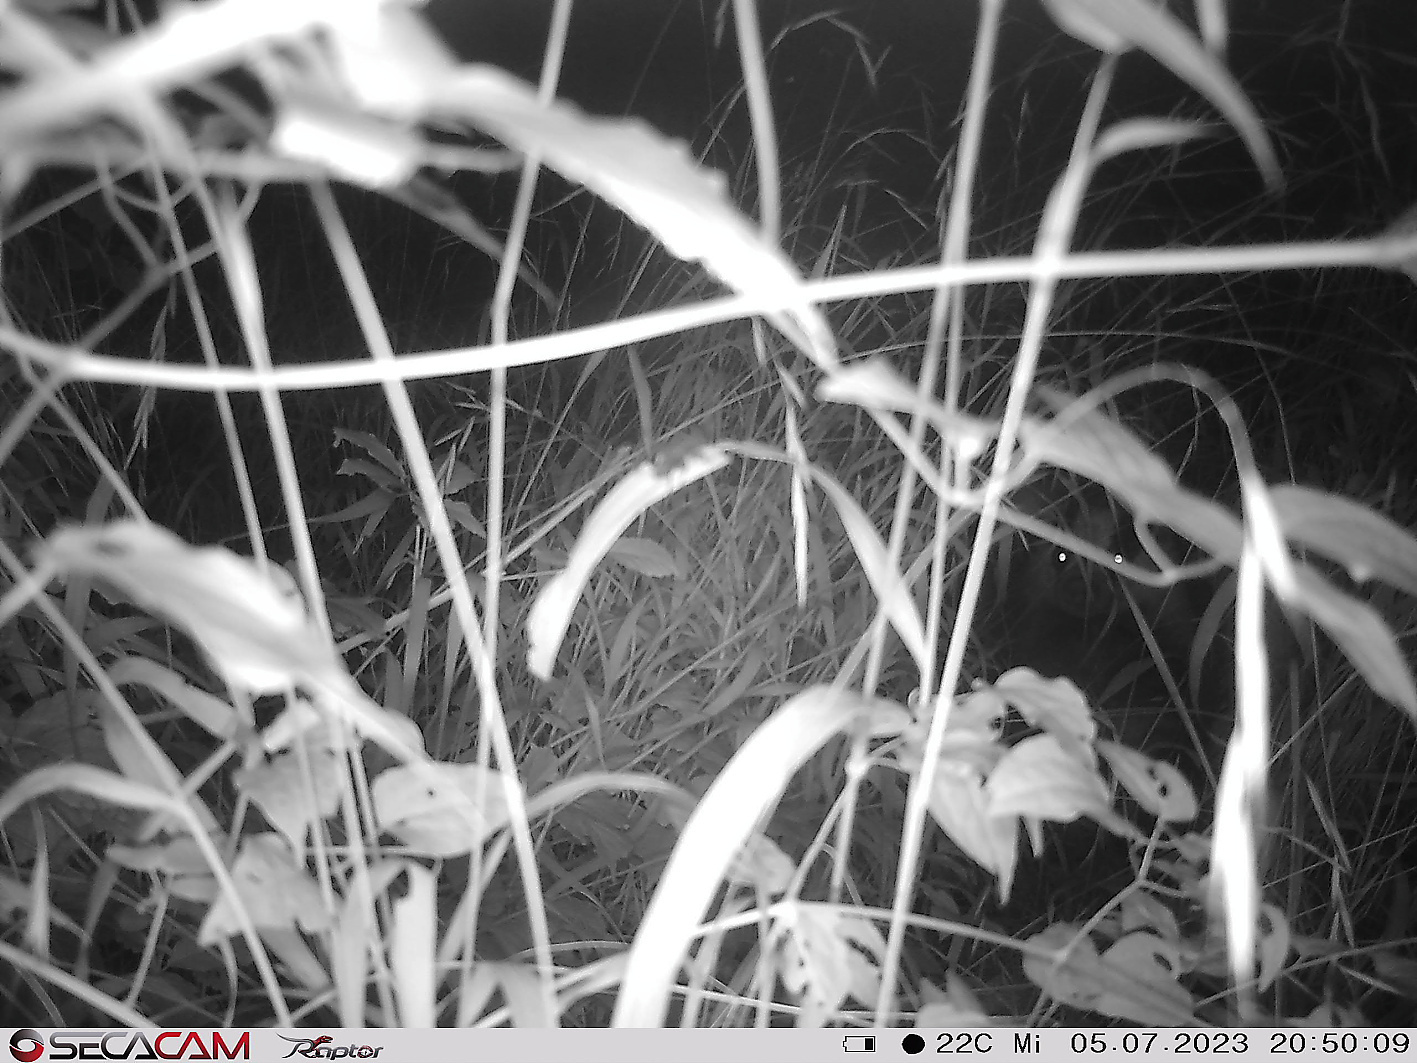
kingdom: Animalia
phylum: Chordata
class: Mammalia
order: Carnivora
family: Mustelidae
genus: Meles
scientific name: Meles meles
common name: Eurasian badger
